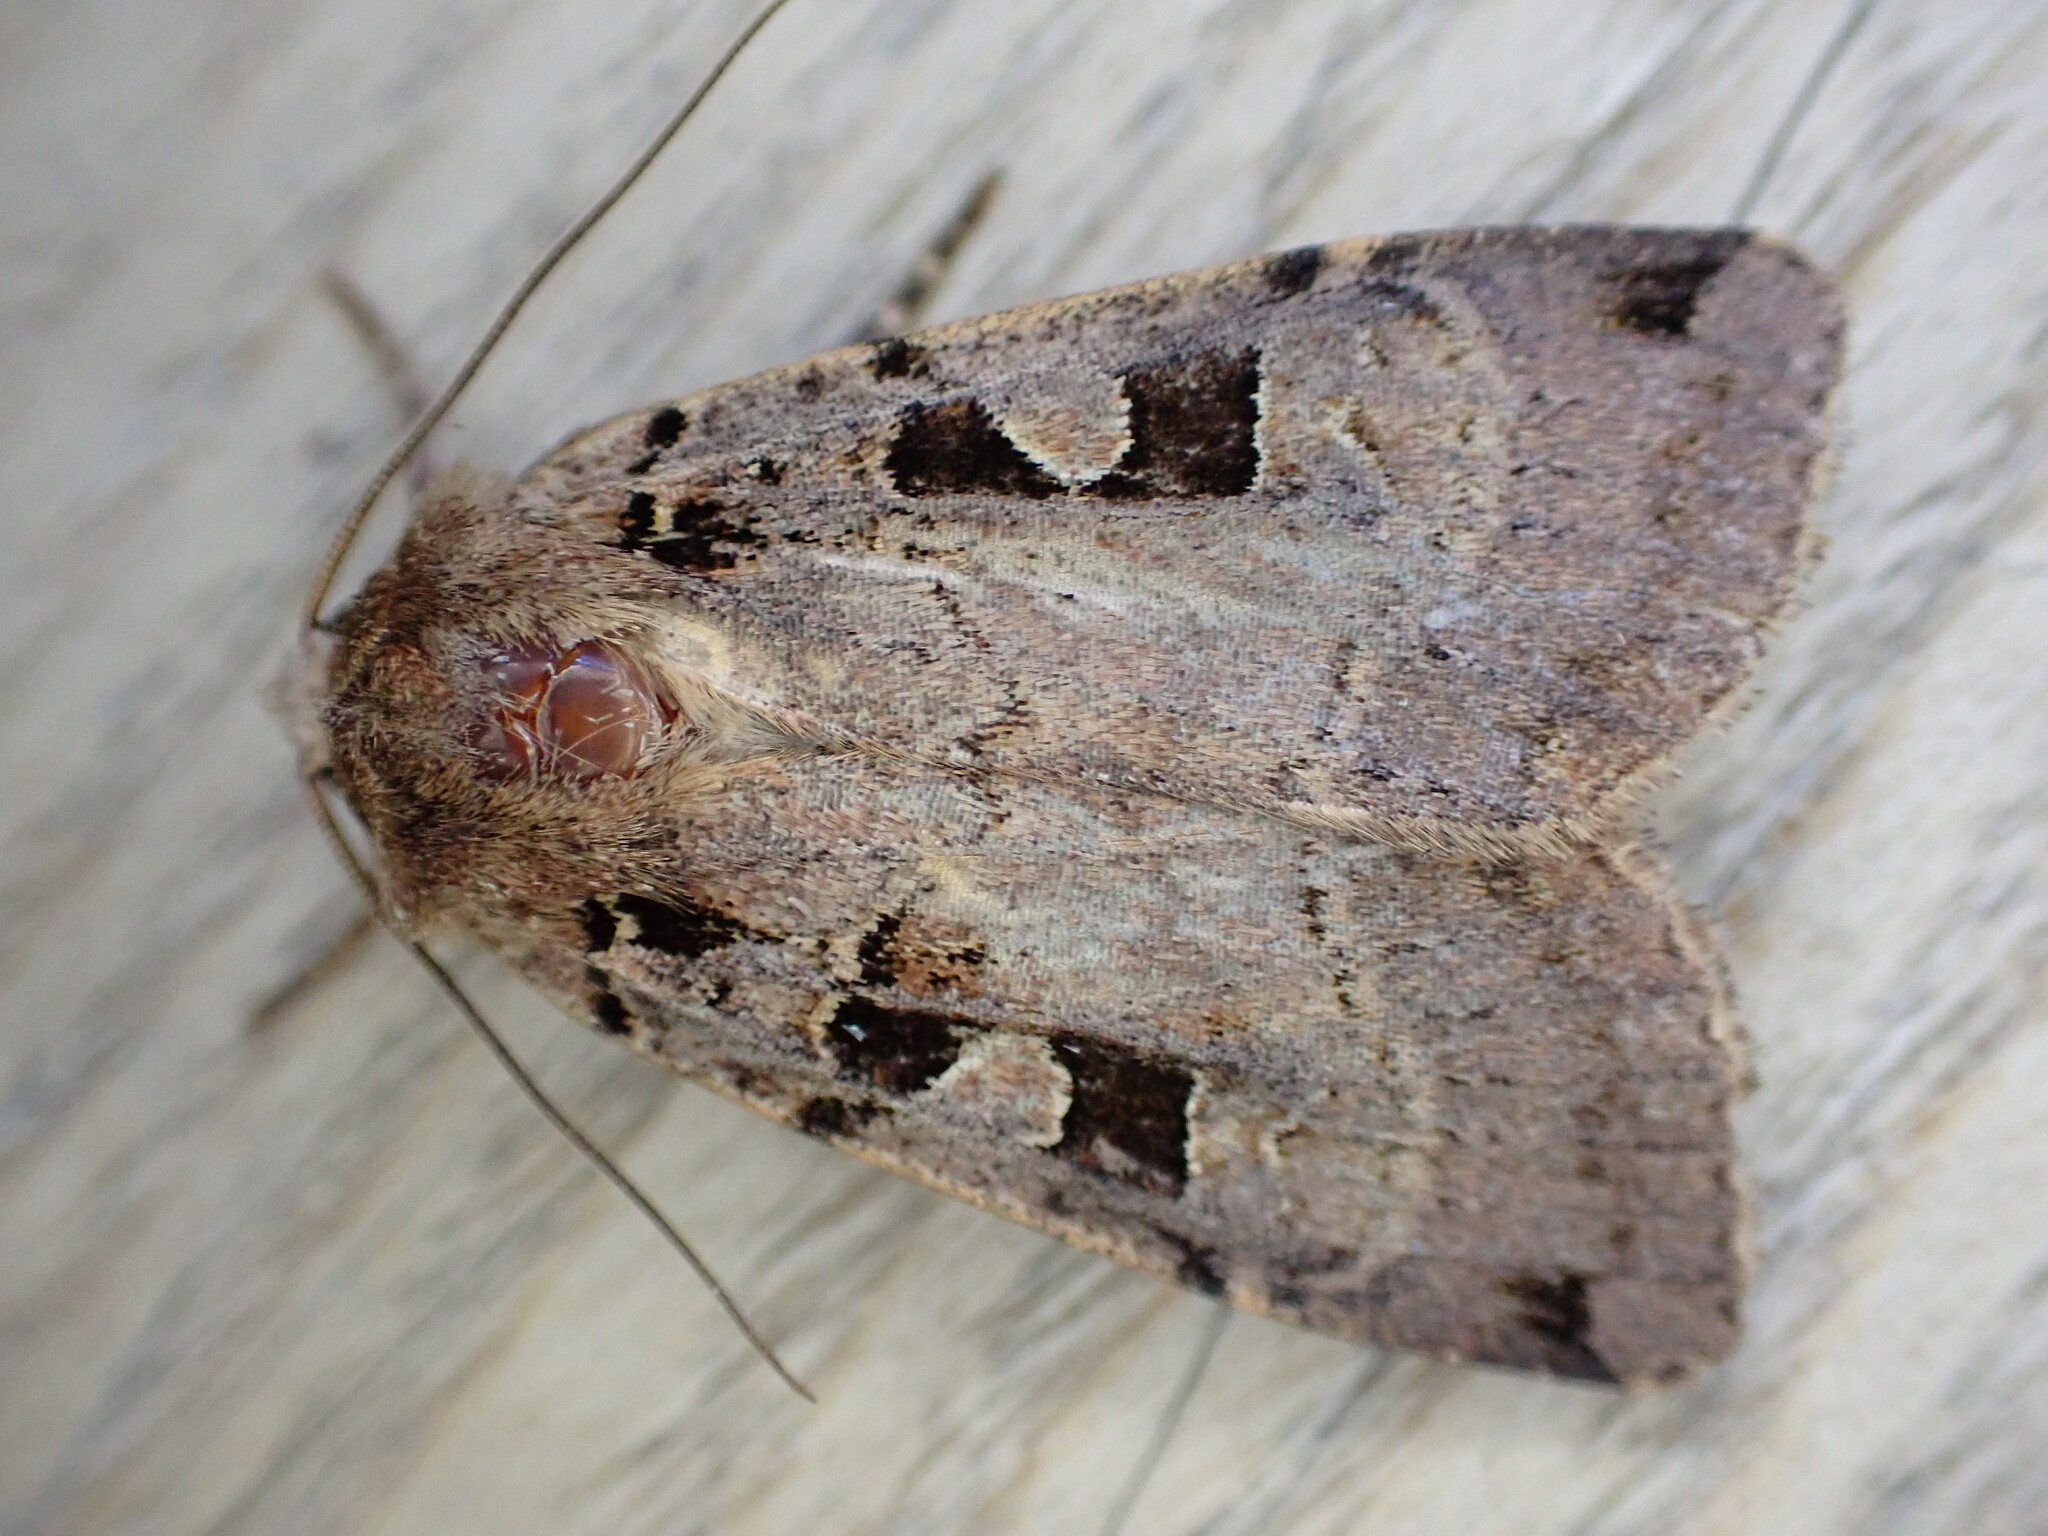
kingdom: Animalia
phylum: Arthropoda
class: Insecta
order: Lepidoptera
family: Noctuidae
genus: Xestia
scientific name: Xestia triangulum
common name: Double square-spot
